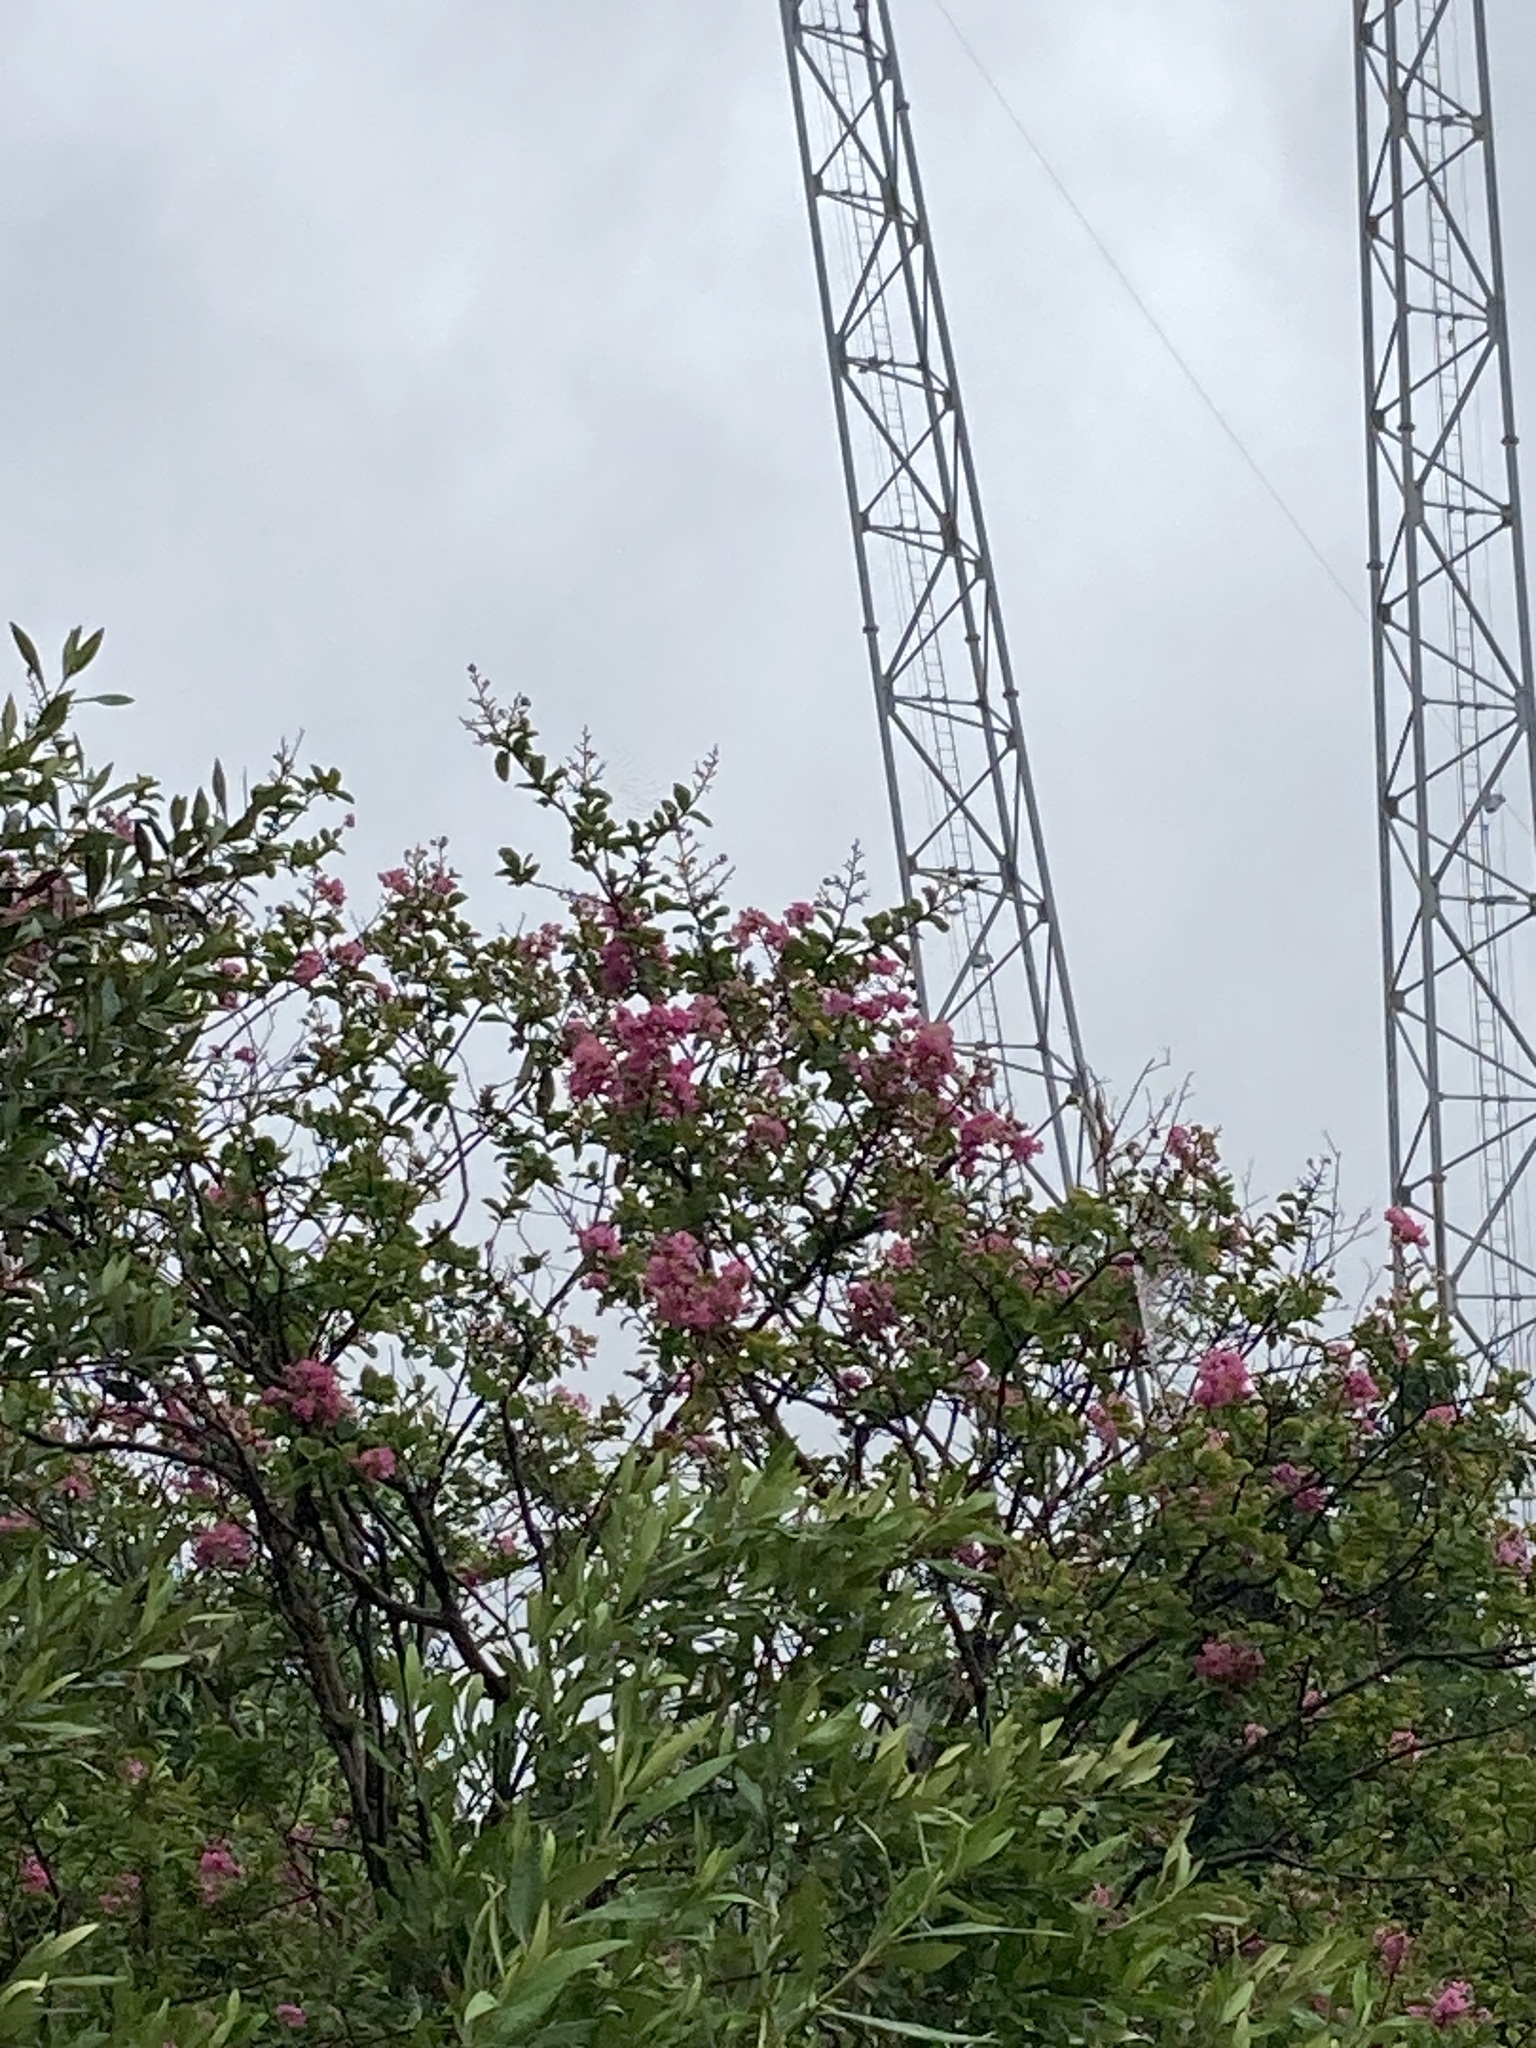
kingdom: Plantae
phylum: Tracheophyta
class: Magnoliopsida
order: Myrtales
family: Lythraceae
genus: Lagerstroemia
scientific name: Lagerstroemia indica
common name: Crape-myrtle
